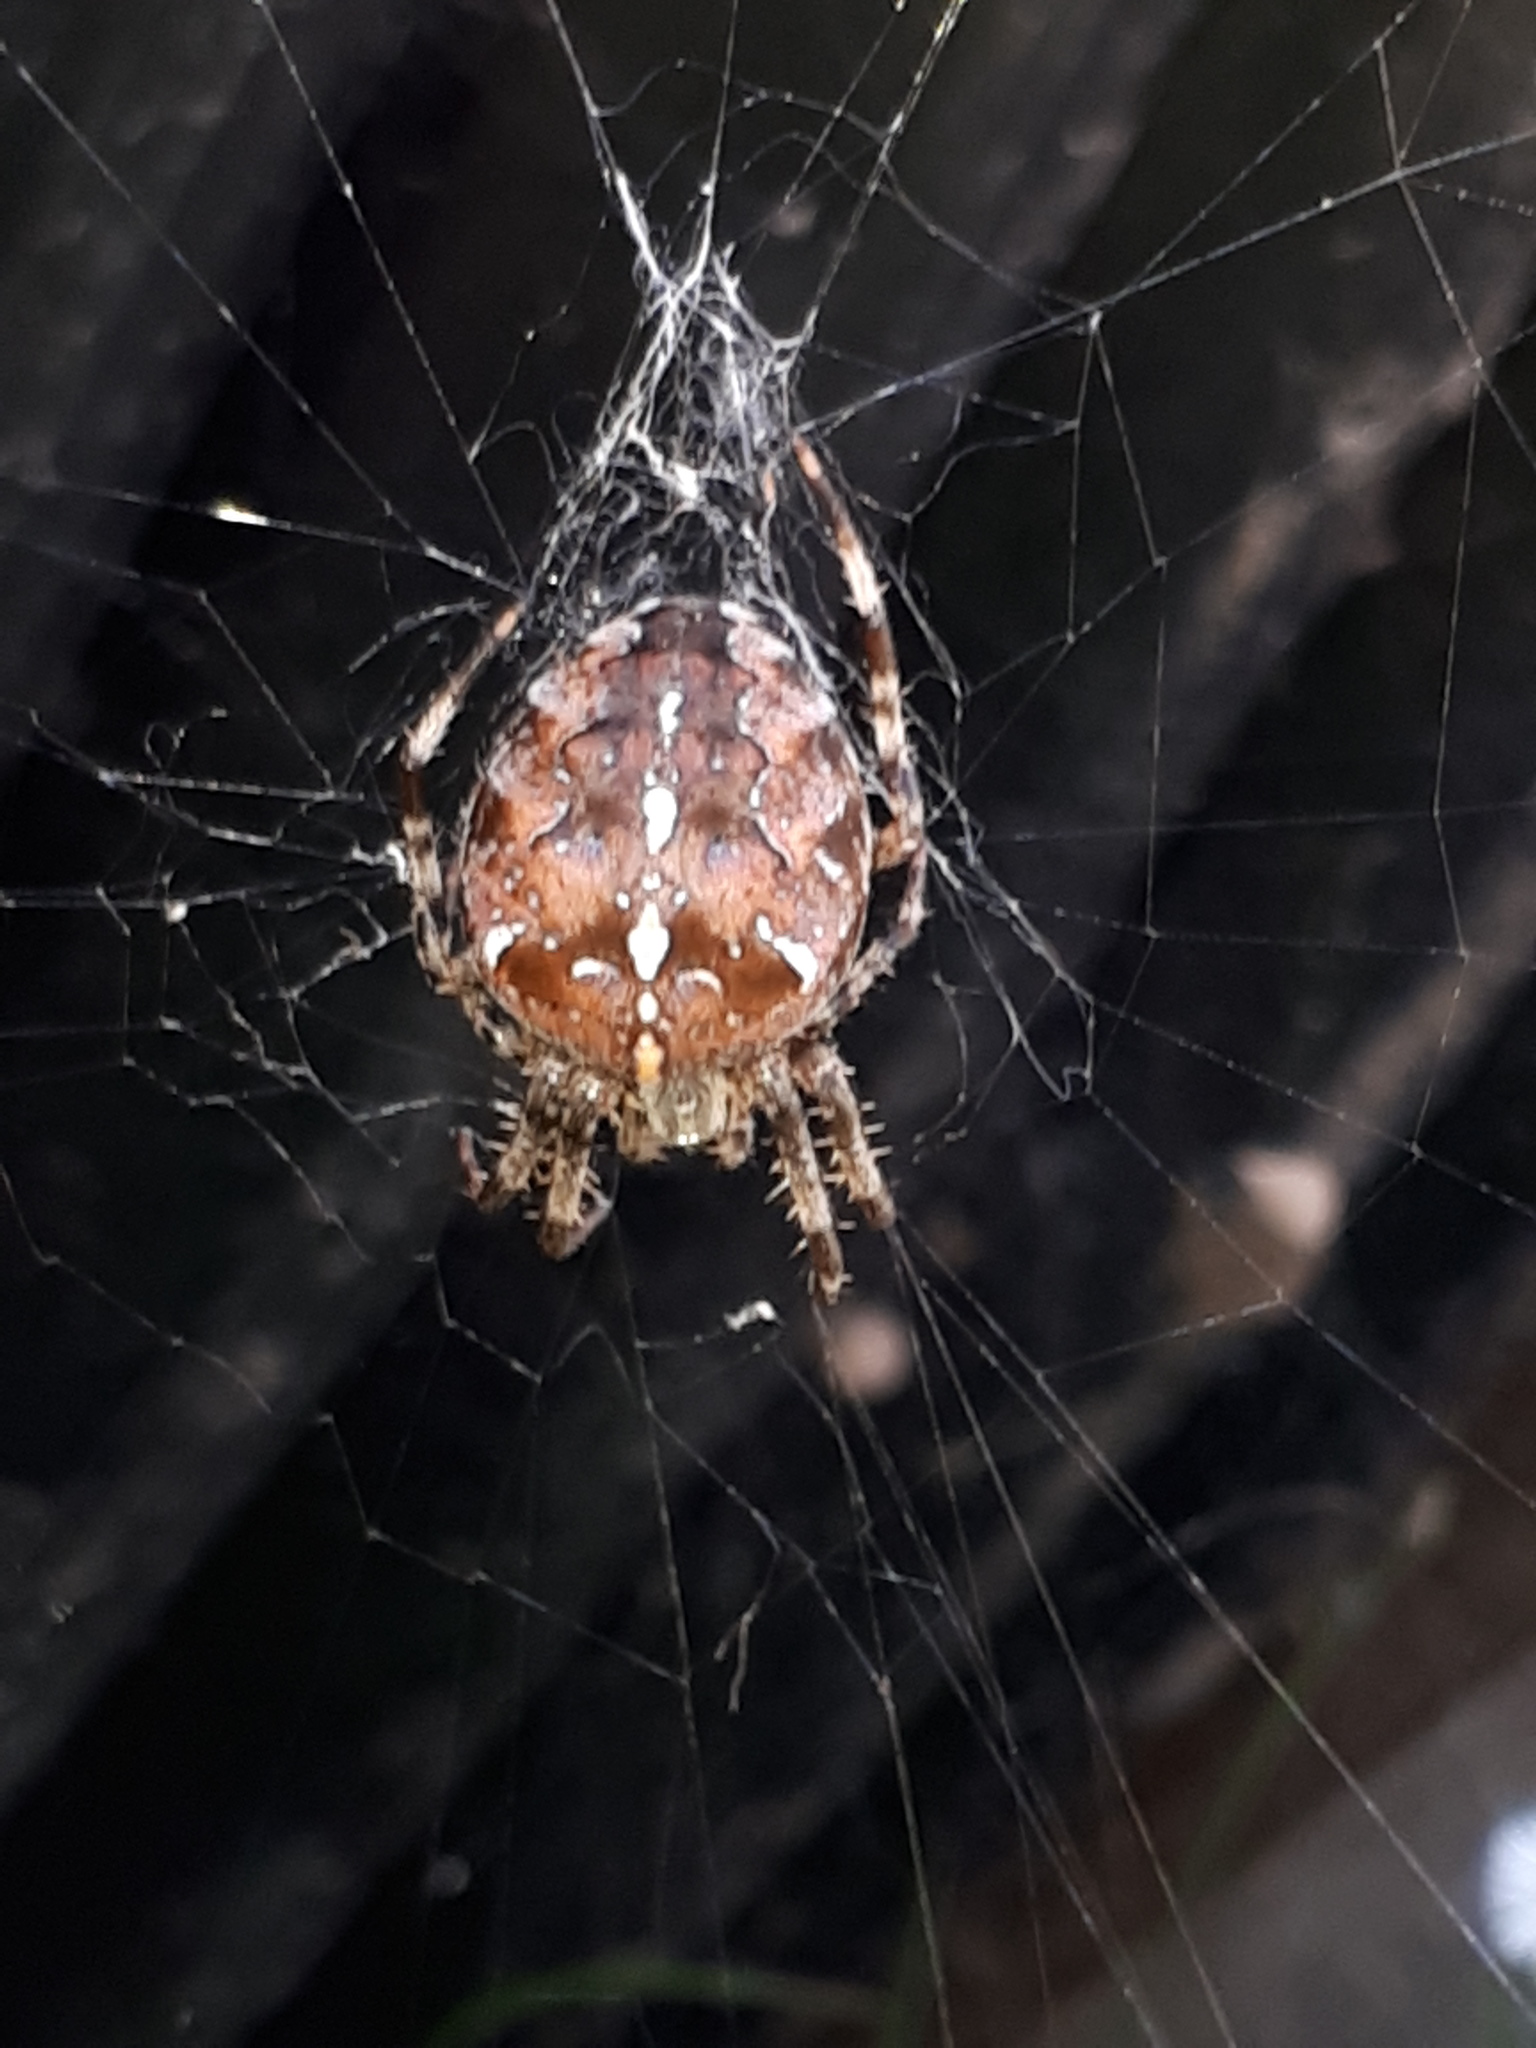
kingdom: Animalia
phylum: Arthropoda
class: Arachnida
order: Araneae
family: Araneidae
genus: Araneus
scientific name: Araneus diadematus
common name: Cross orbweaver
